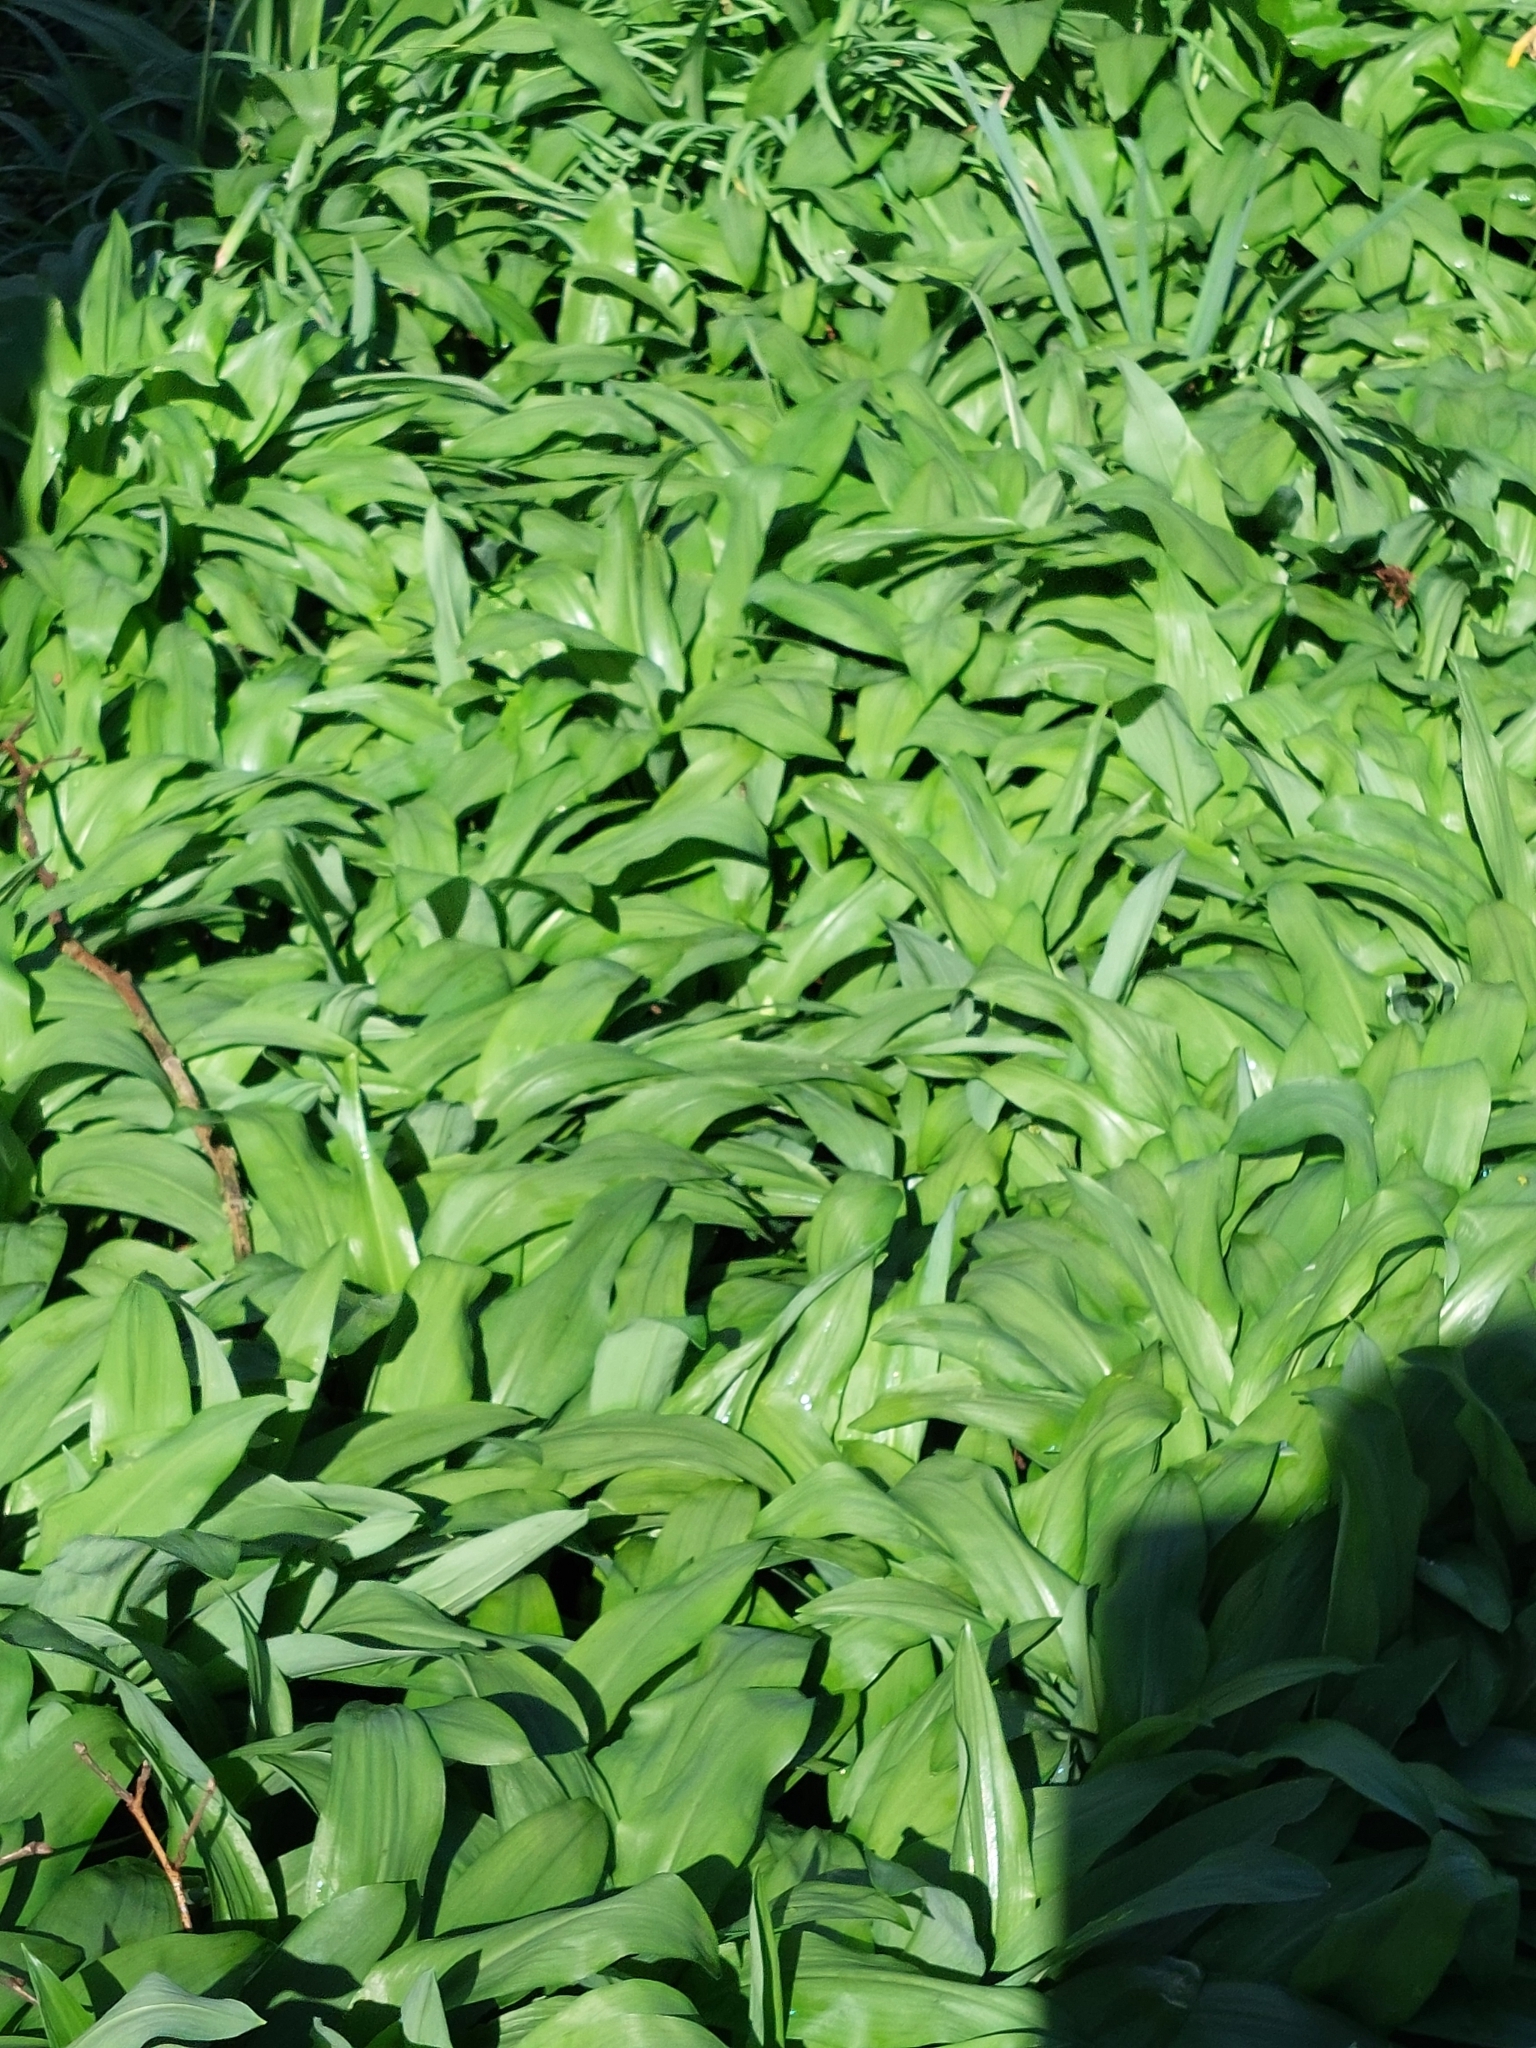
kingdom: Plantae
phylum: Tracheophyta
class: Liliopsida
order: Asparagales
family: Amaryllidaceae
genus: Allium
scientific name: Allium ursinum
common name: Ramsons
